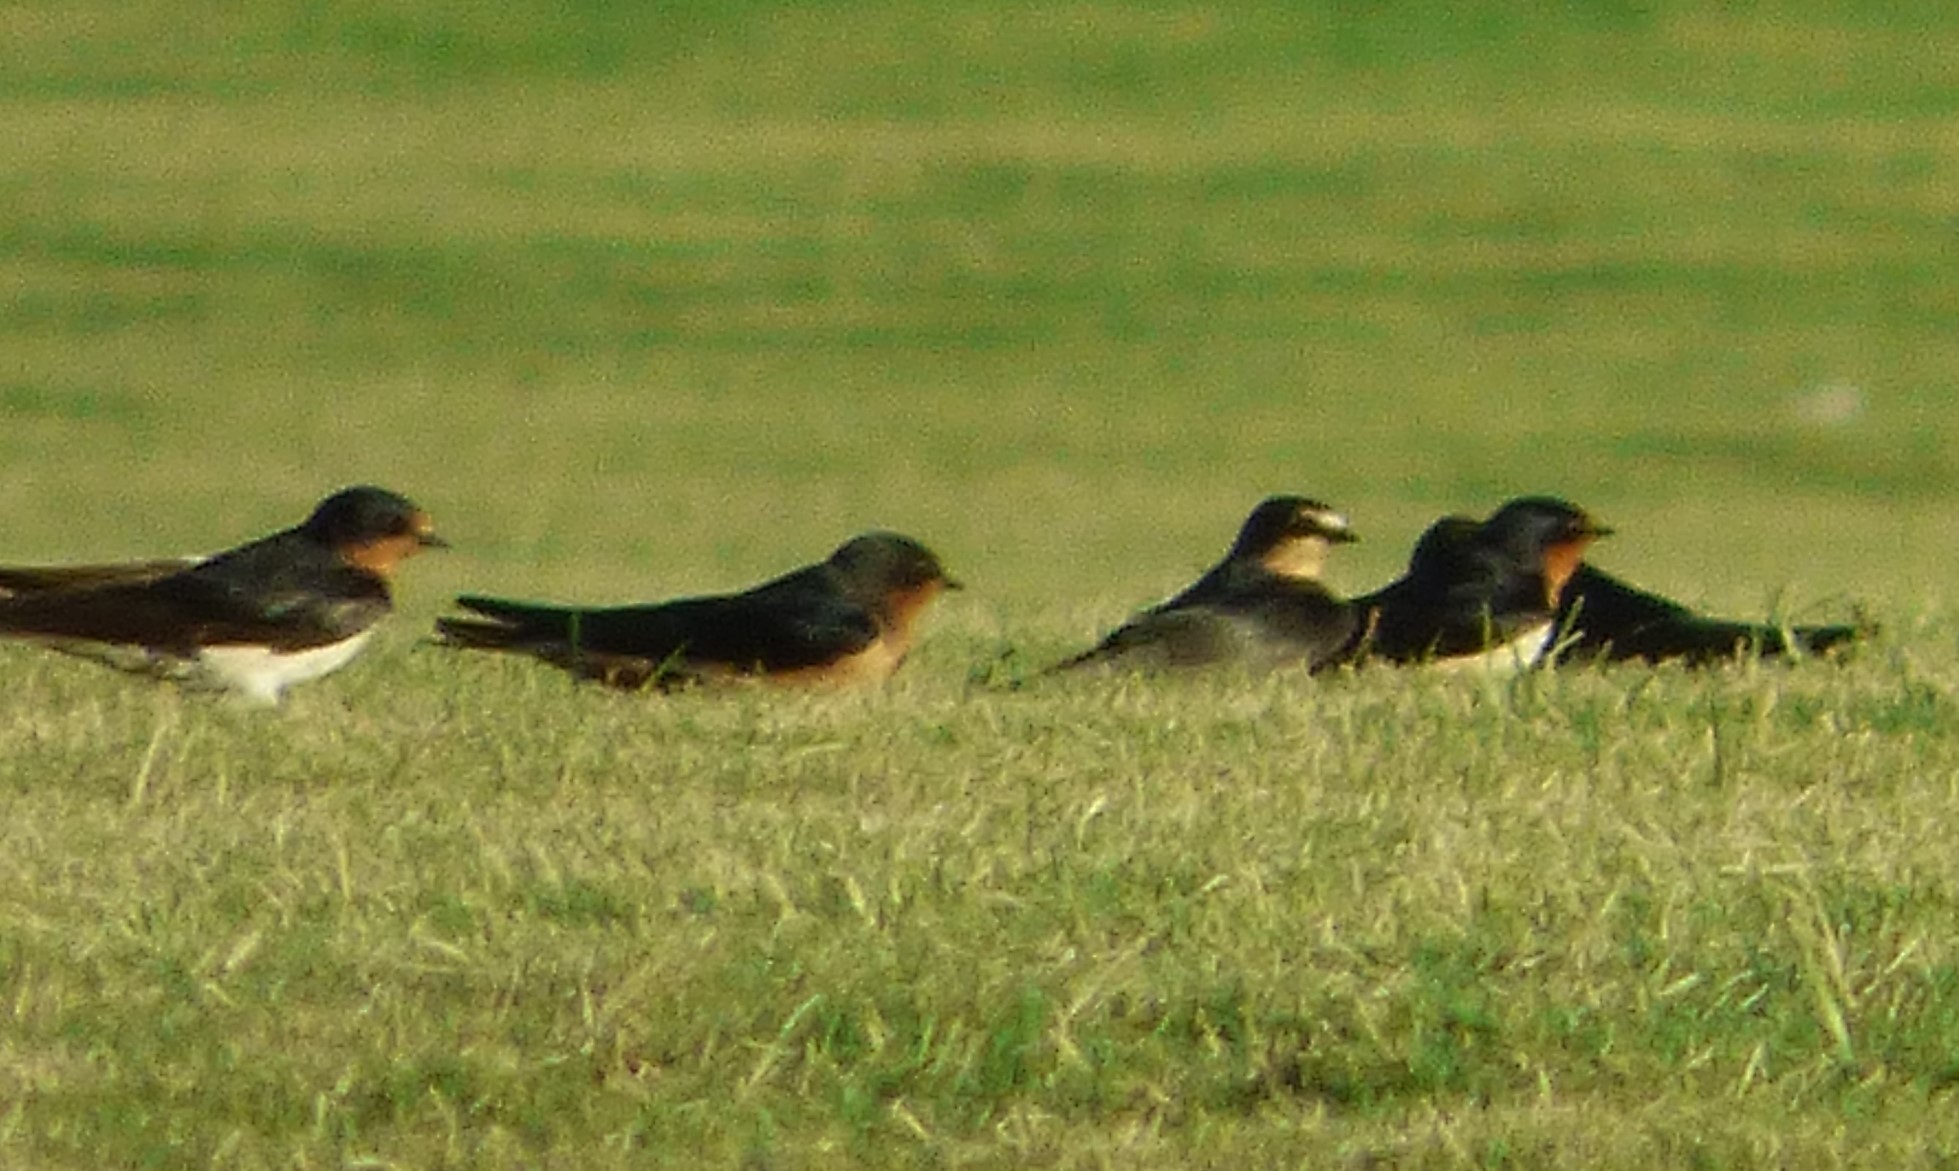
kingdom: Animalia
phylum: Chordata
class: Aves
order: Passeriformes
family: Hirundinidae
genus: Hirundo
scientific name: Hirundo rustica
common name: Barn swallow
